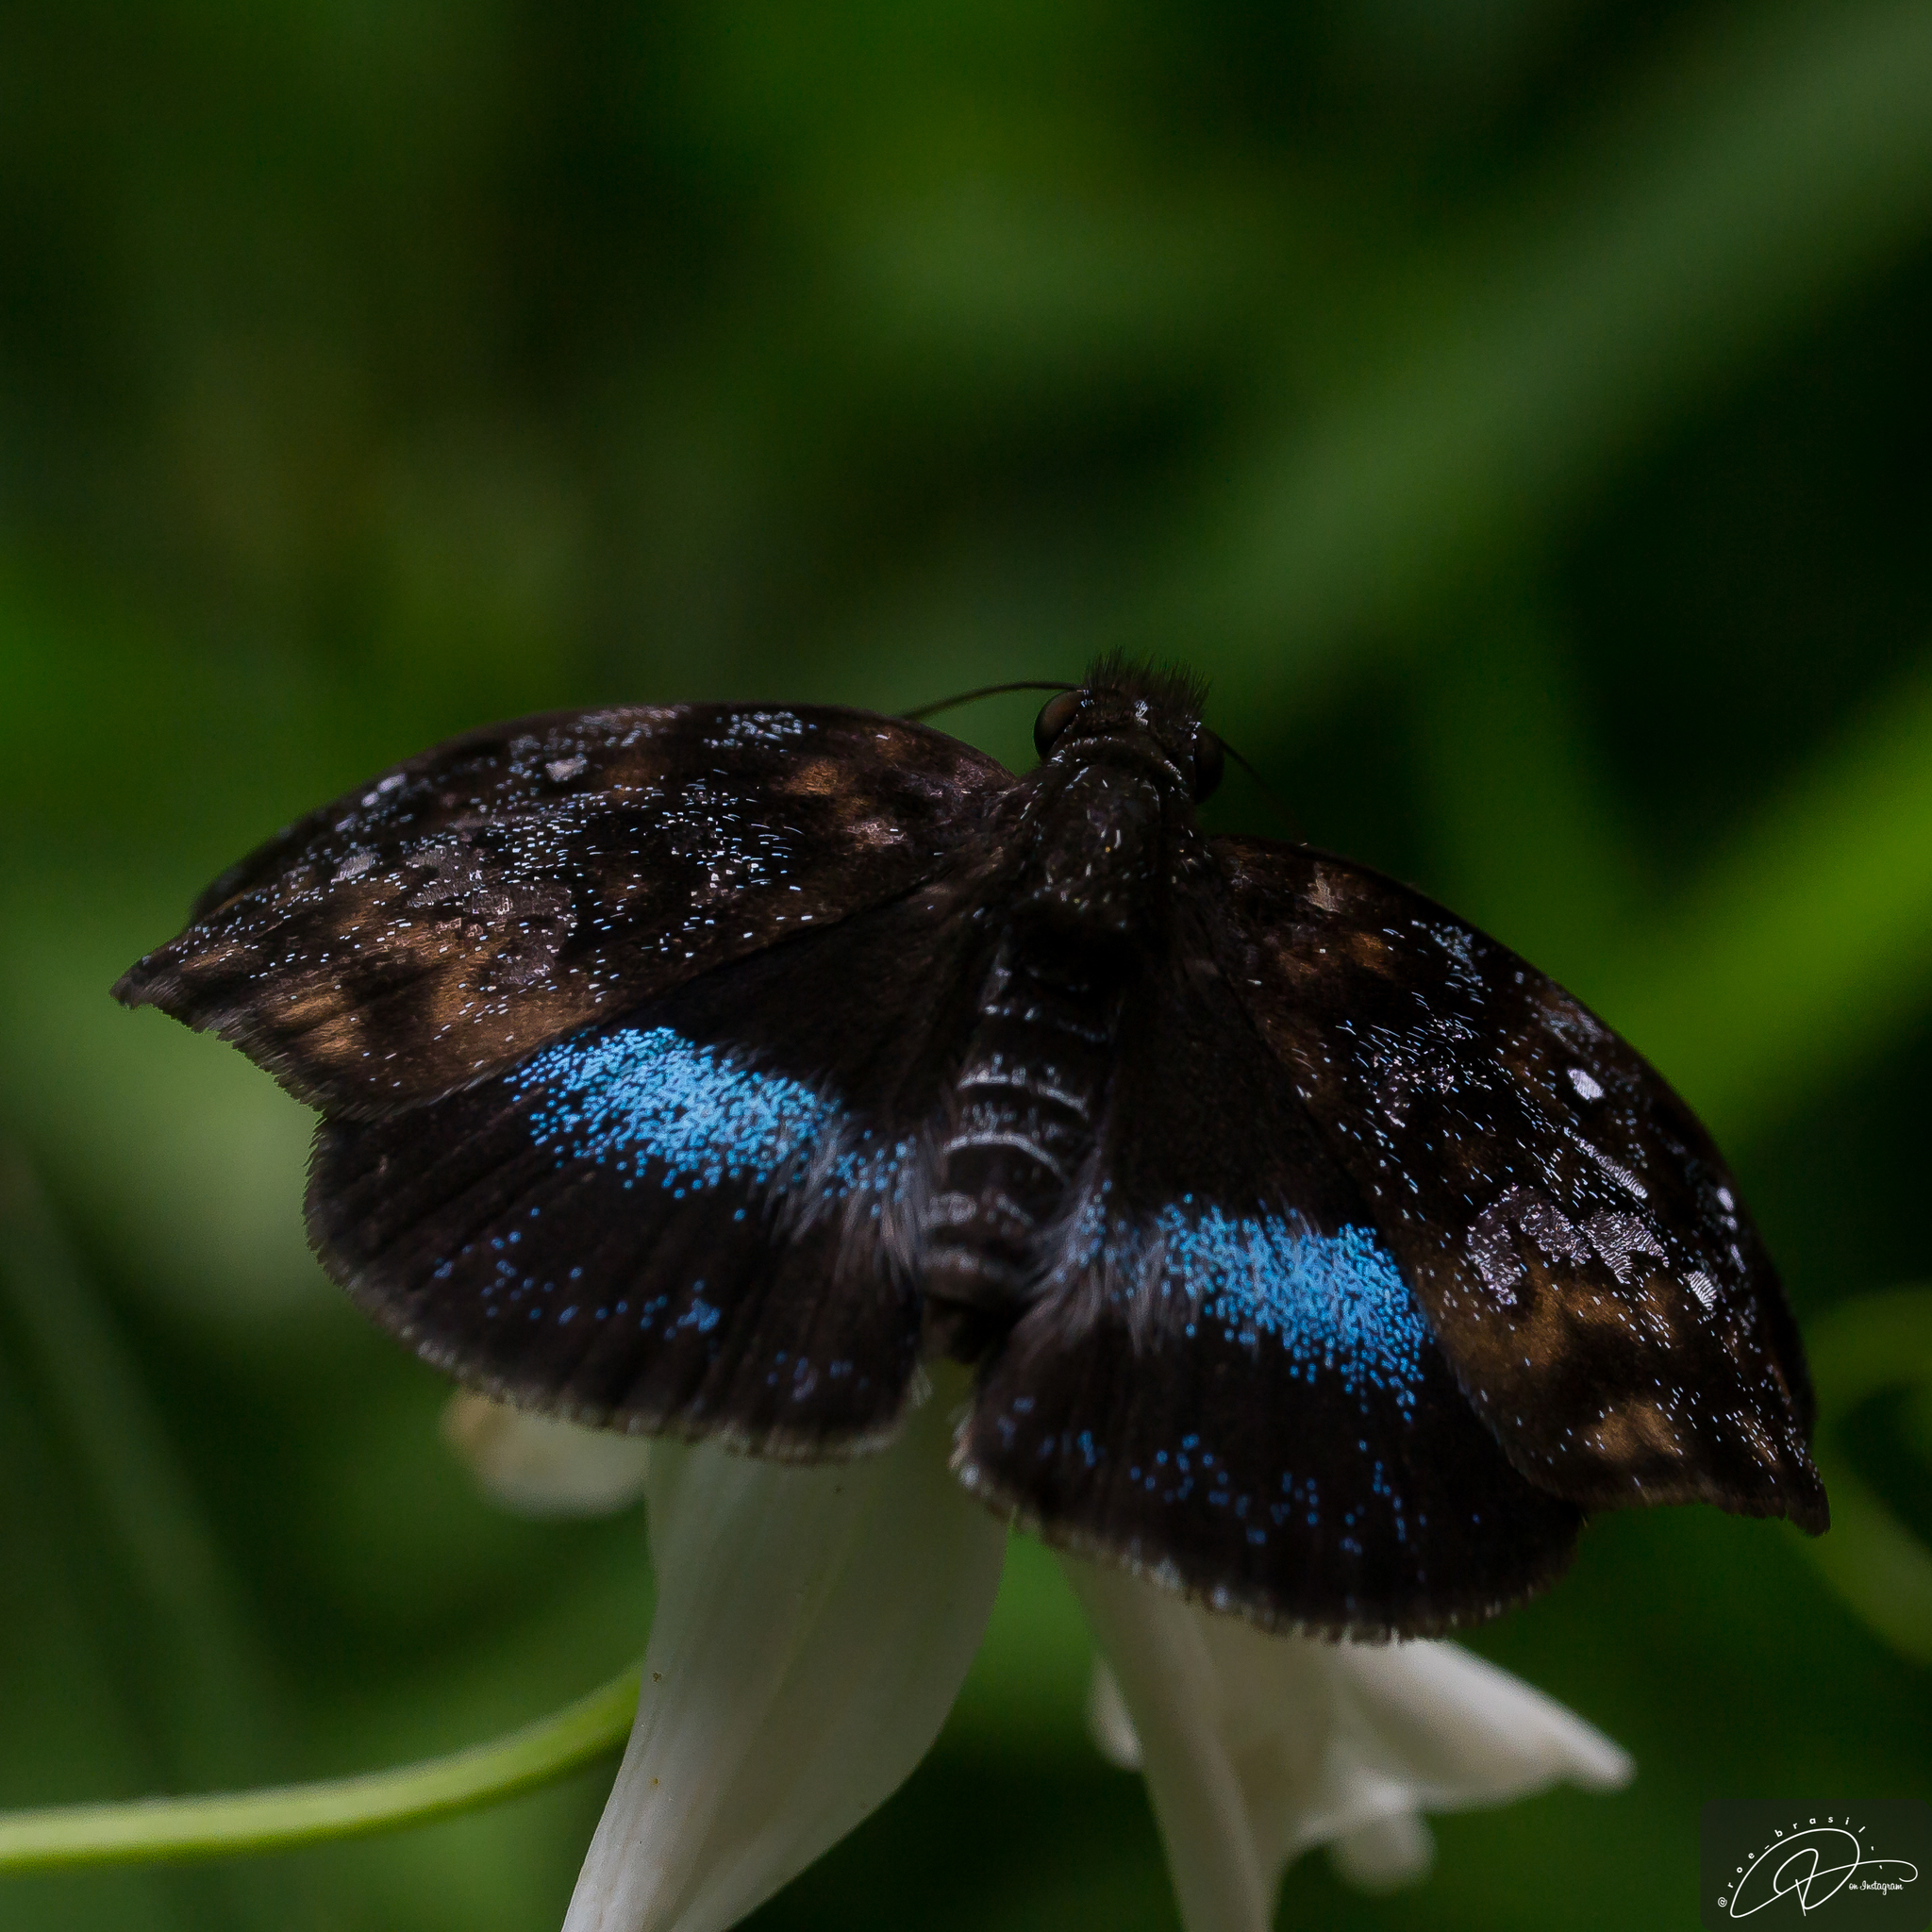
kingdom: Animalia
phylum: Arthropoda
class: Insecta
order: Lepidoptera
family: Hesperiidae
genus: Sostrata
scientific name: Sostrata
